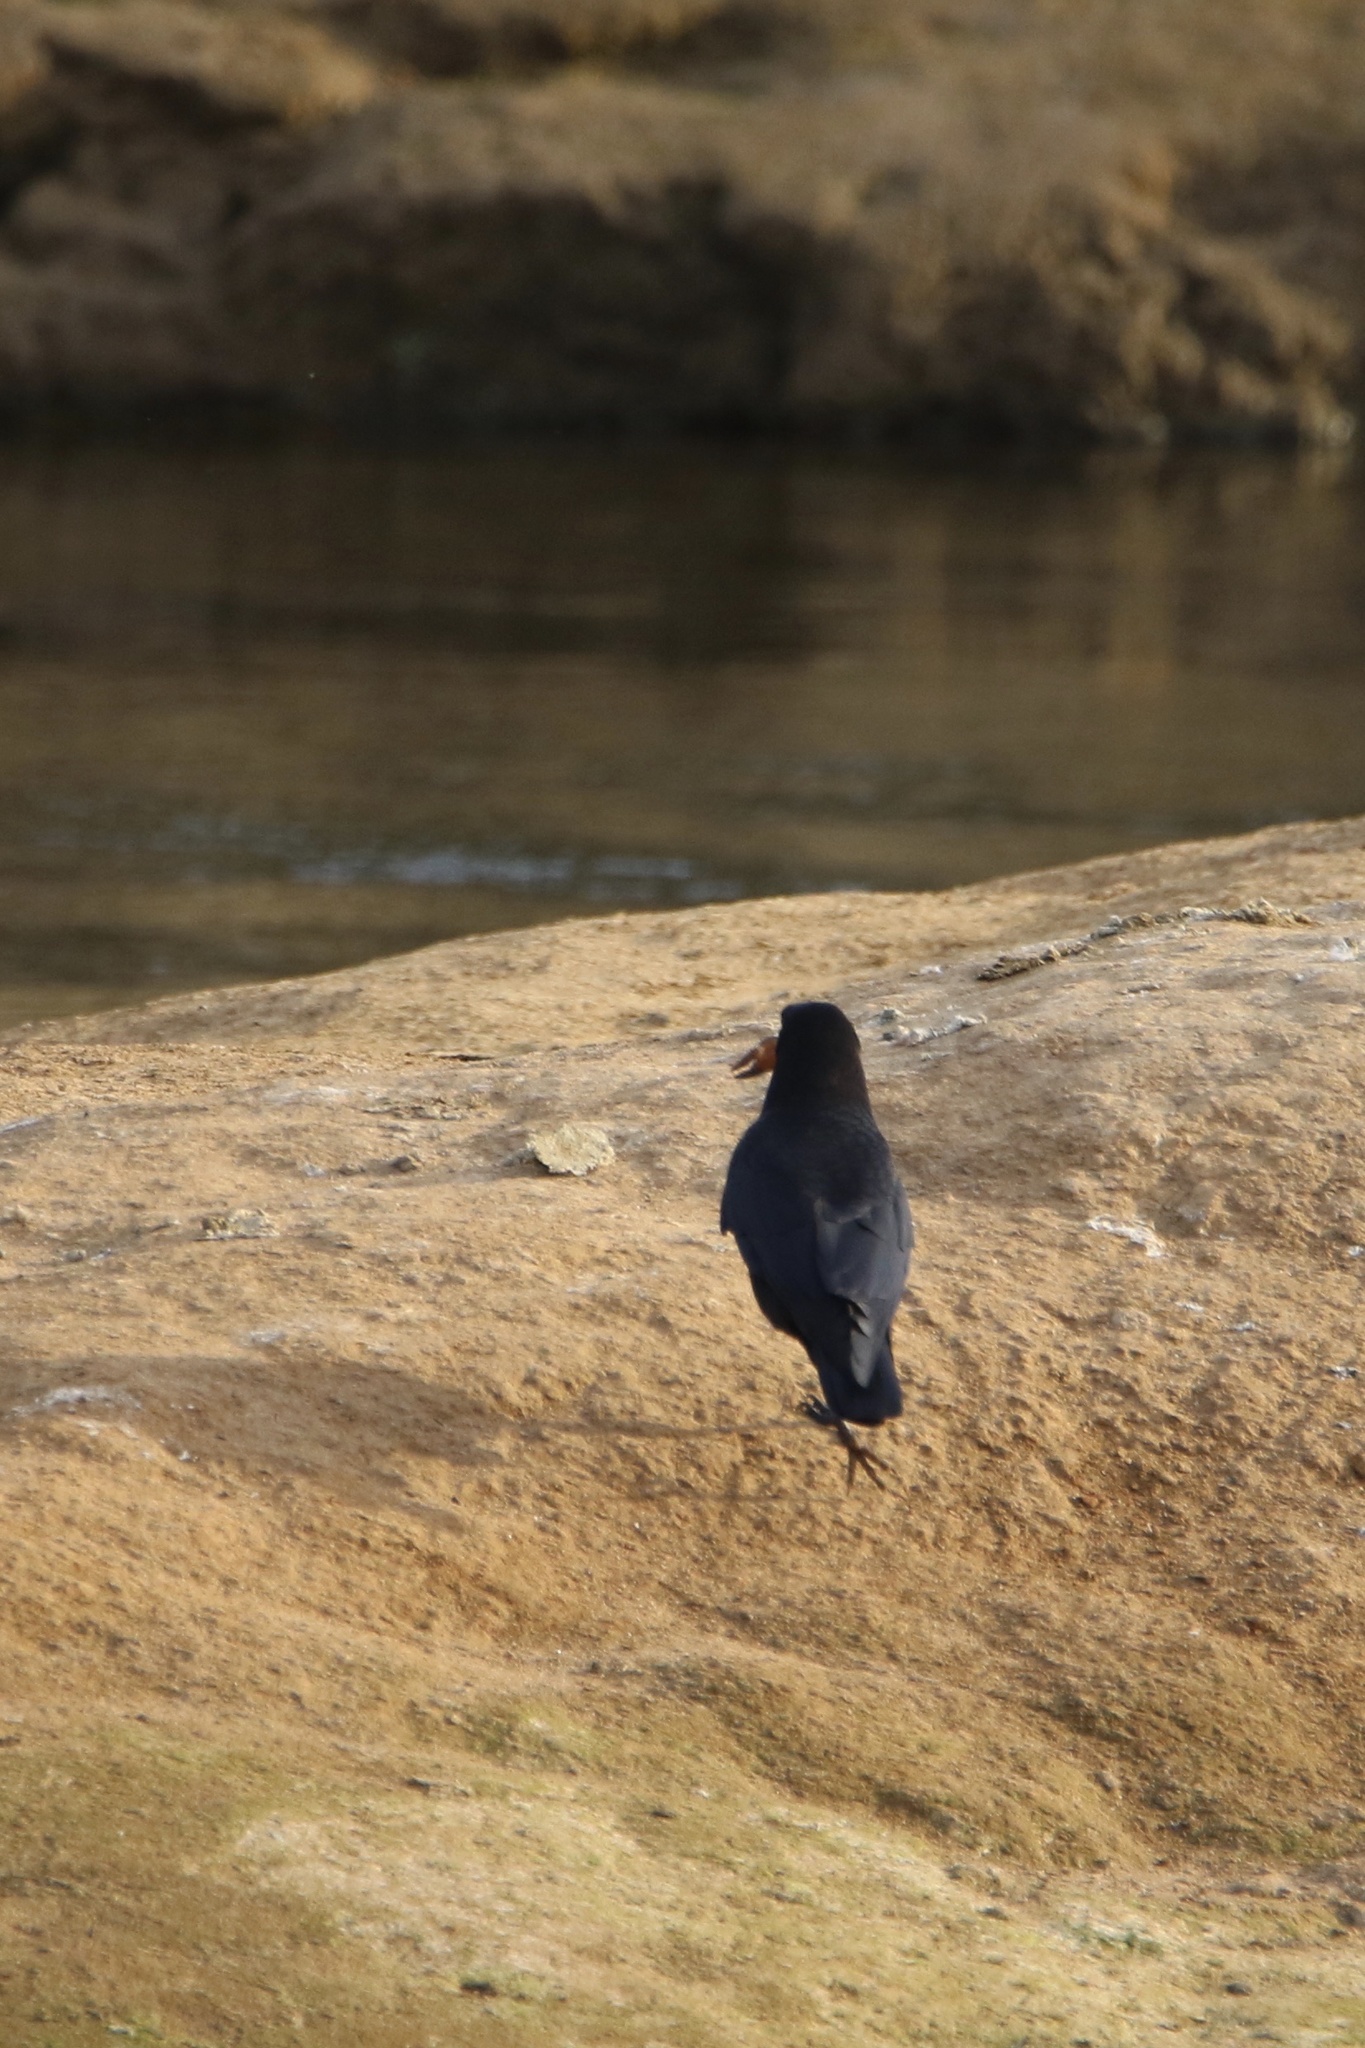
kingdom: Animalia
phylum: Chordata
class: Aves
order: Passeriformes
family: Corvidae
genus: Corvus
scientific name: Corvus brachyrhynchos
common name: American crow
